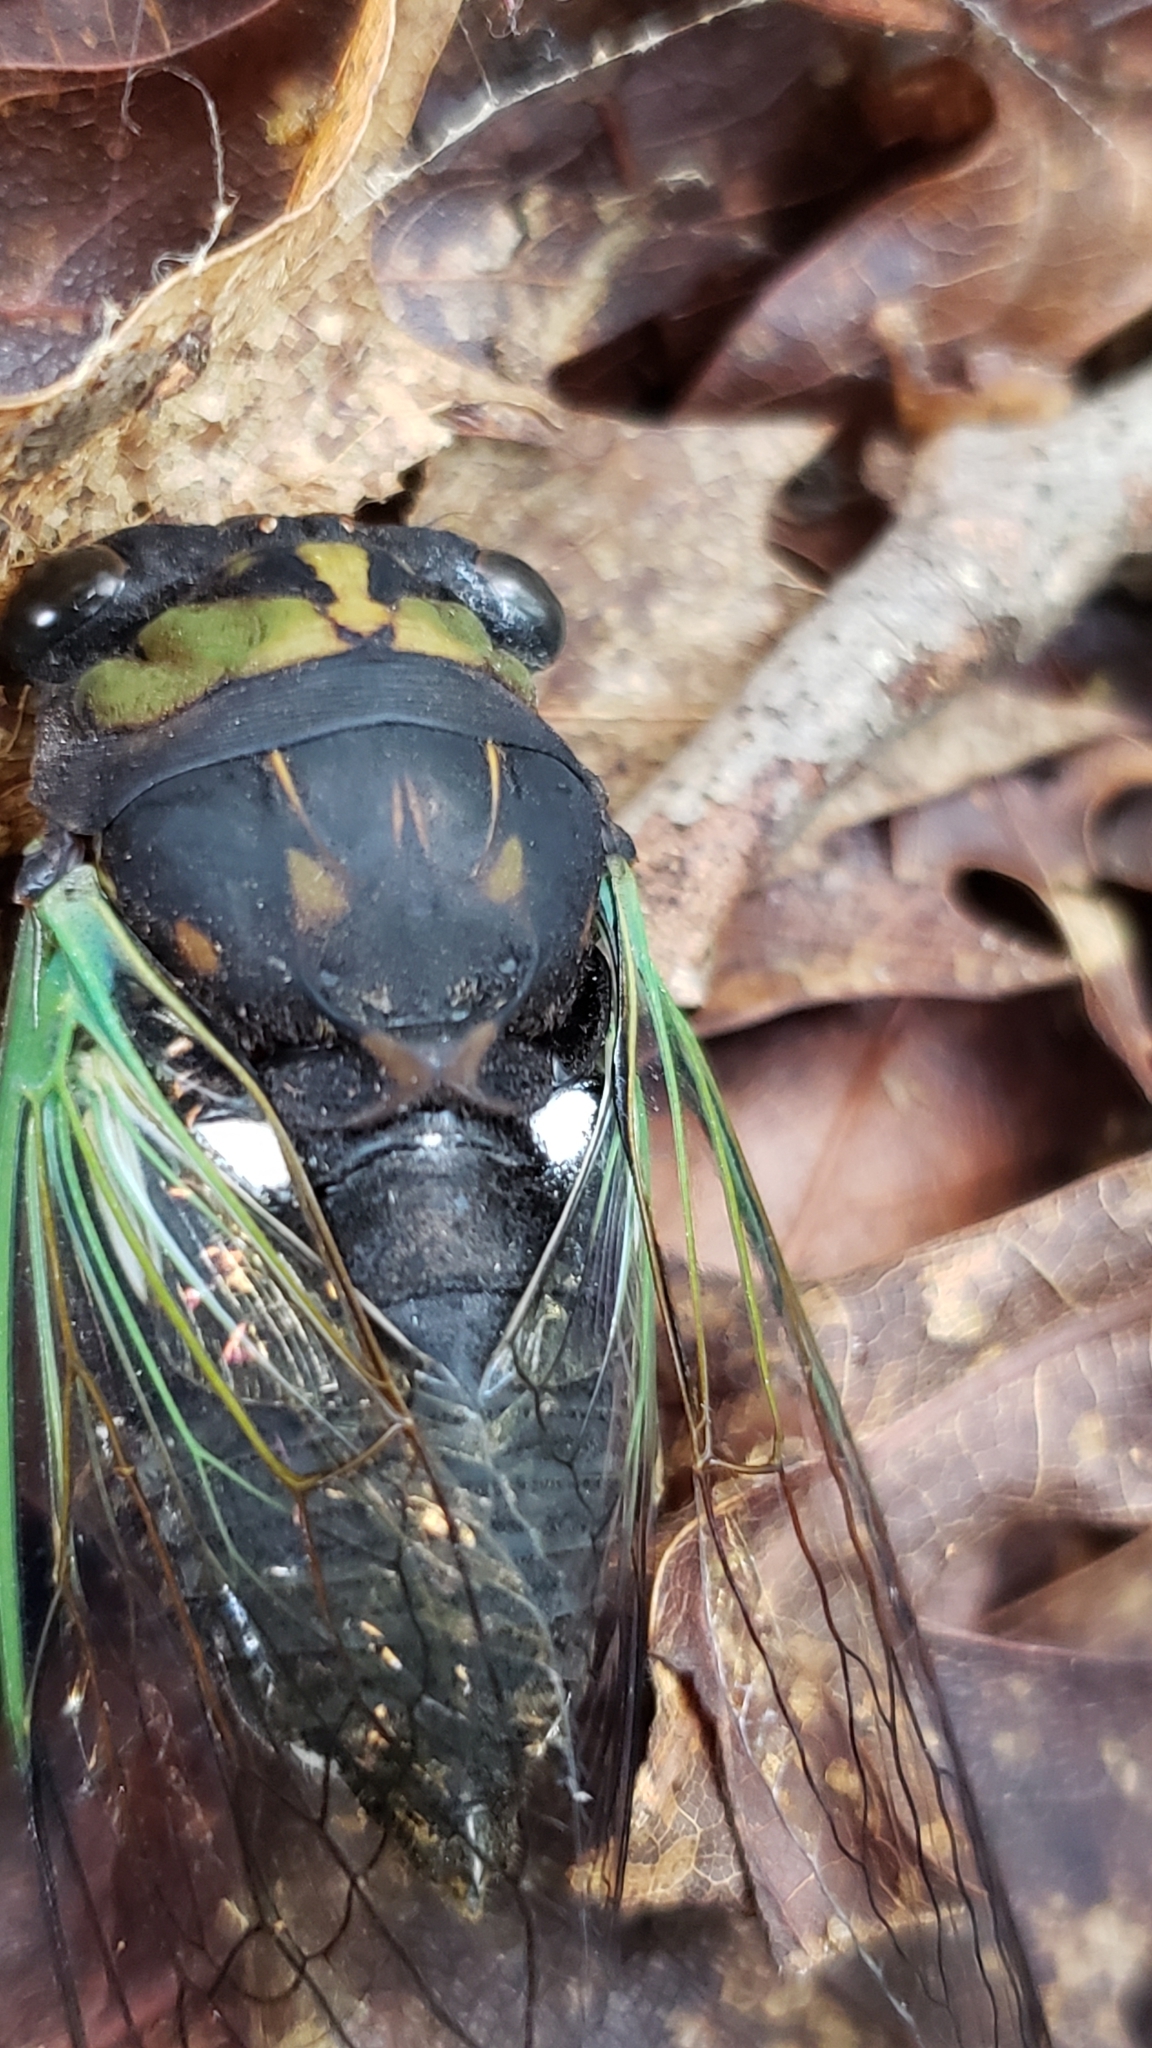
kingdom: Animalia
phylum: Arthropoda
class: Insecta
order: Hemiptera
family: Cicadidae
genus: Neotibicen
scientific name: Neotibicen tibicen
